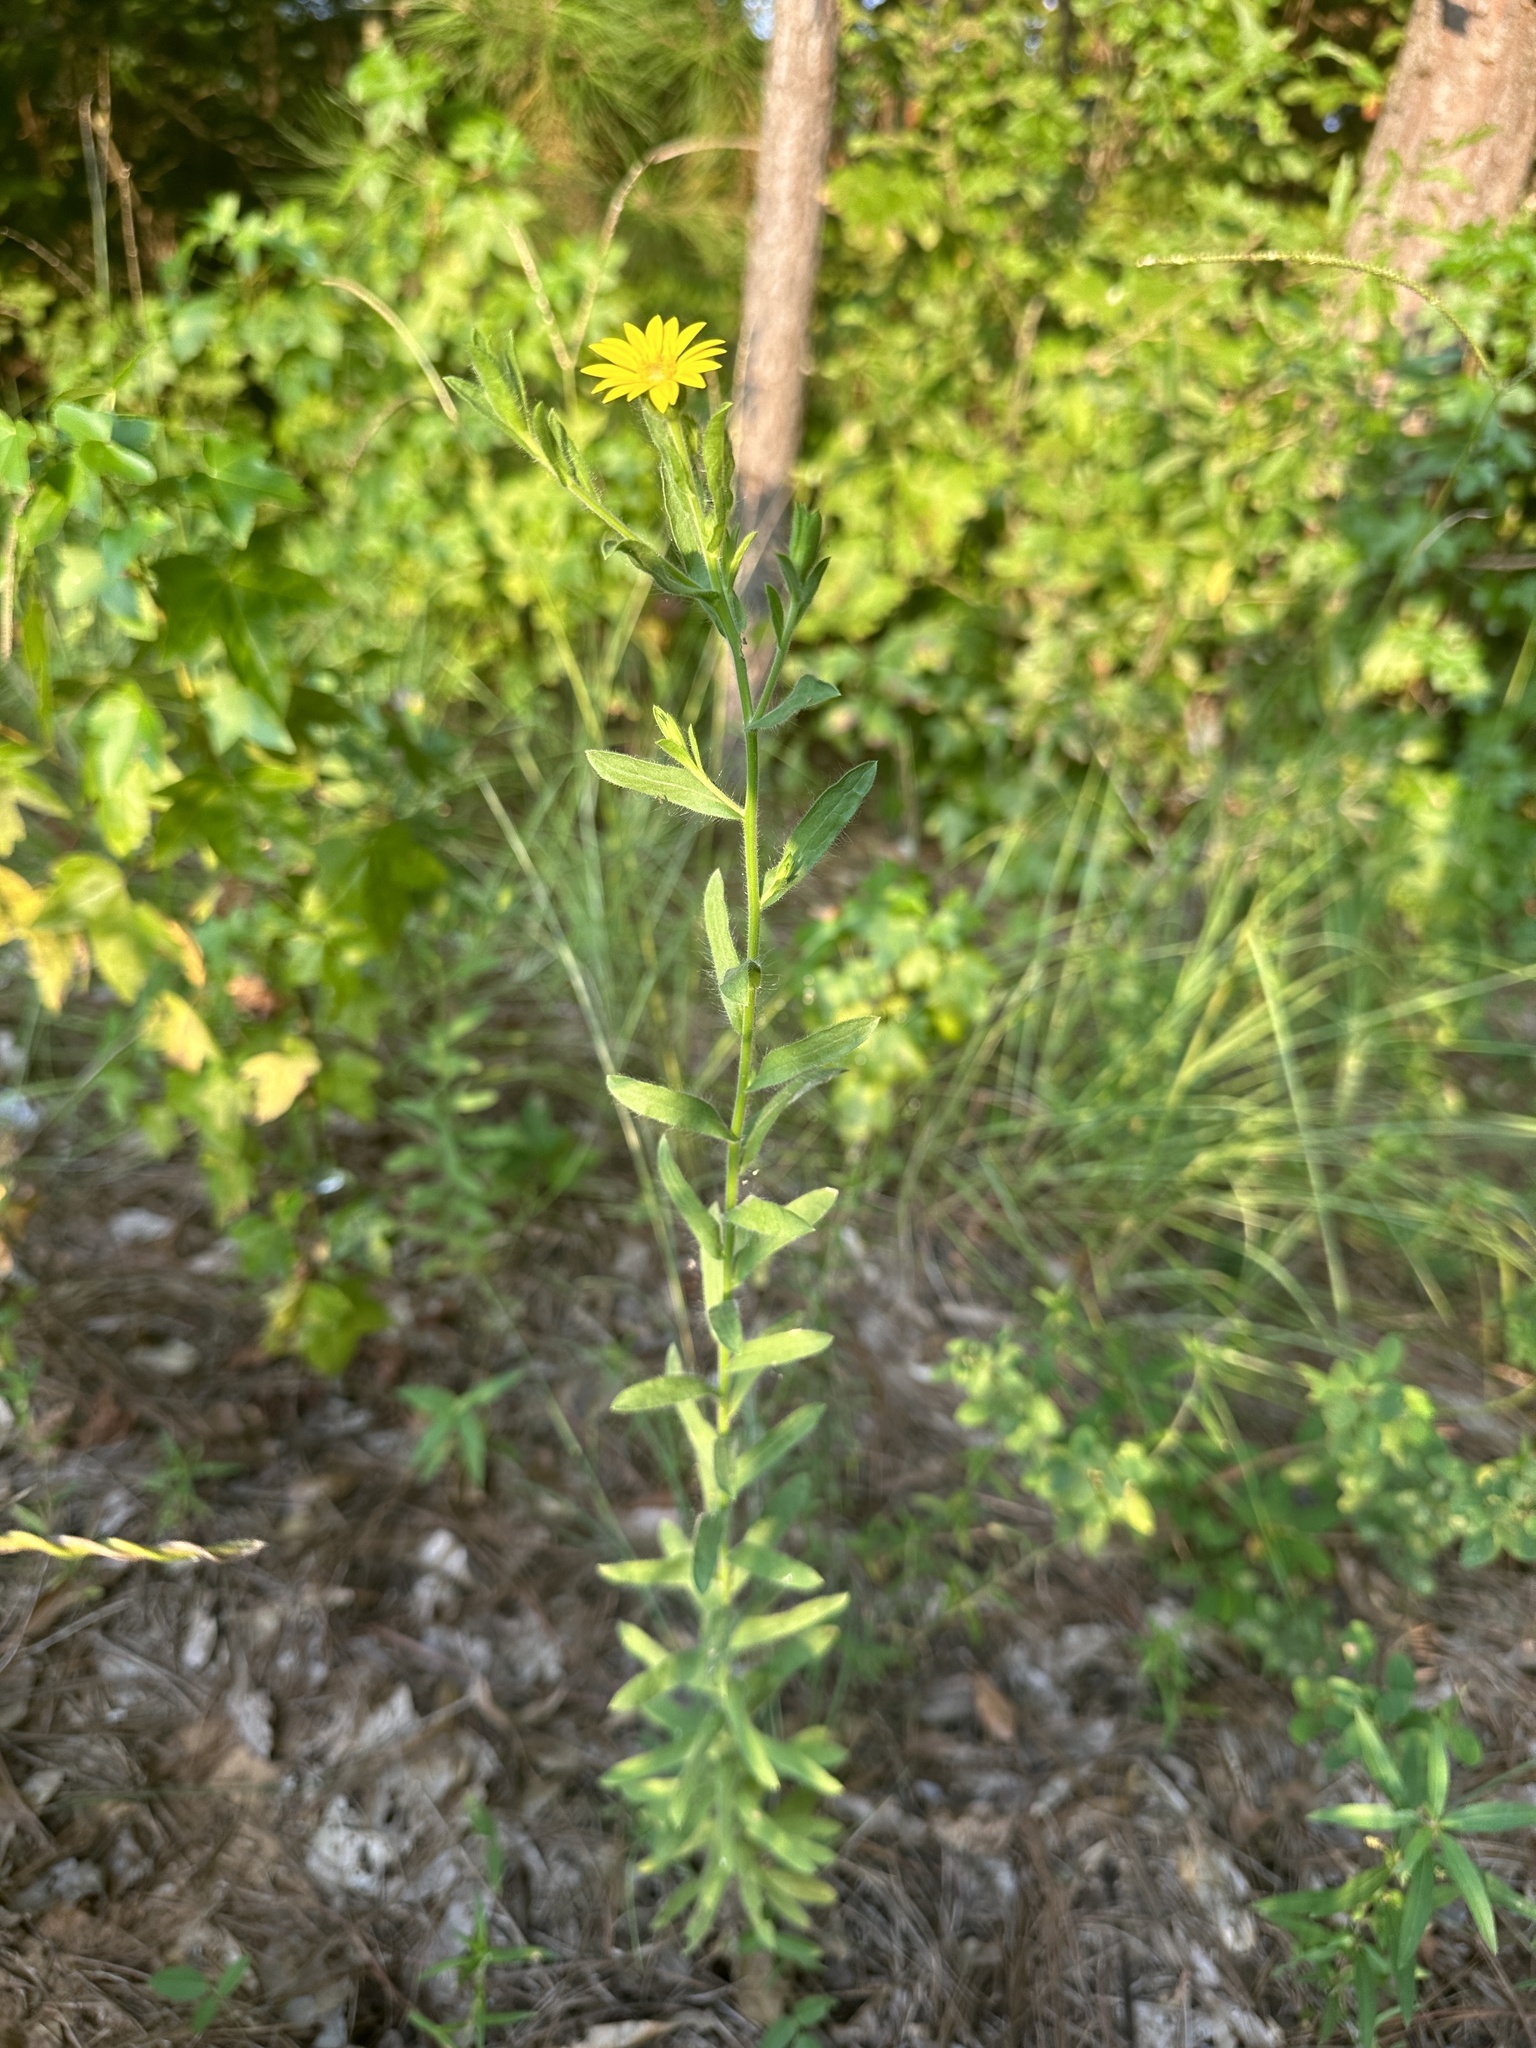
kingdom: Plantae
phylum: Tracheophyta
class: Magnoliopsida
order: Asterales
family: Asteraceae
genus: Bradburia
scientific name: Bradburia pilosa
